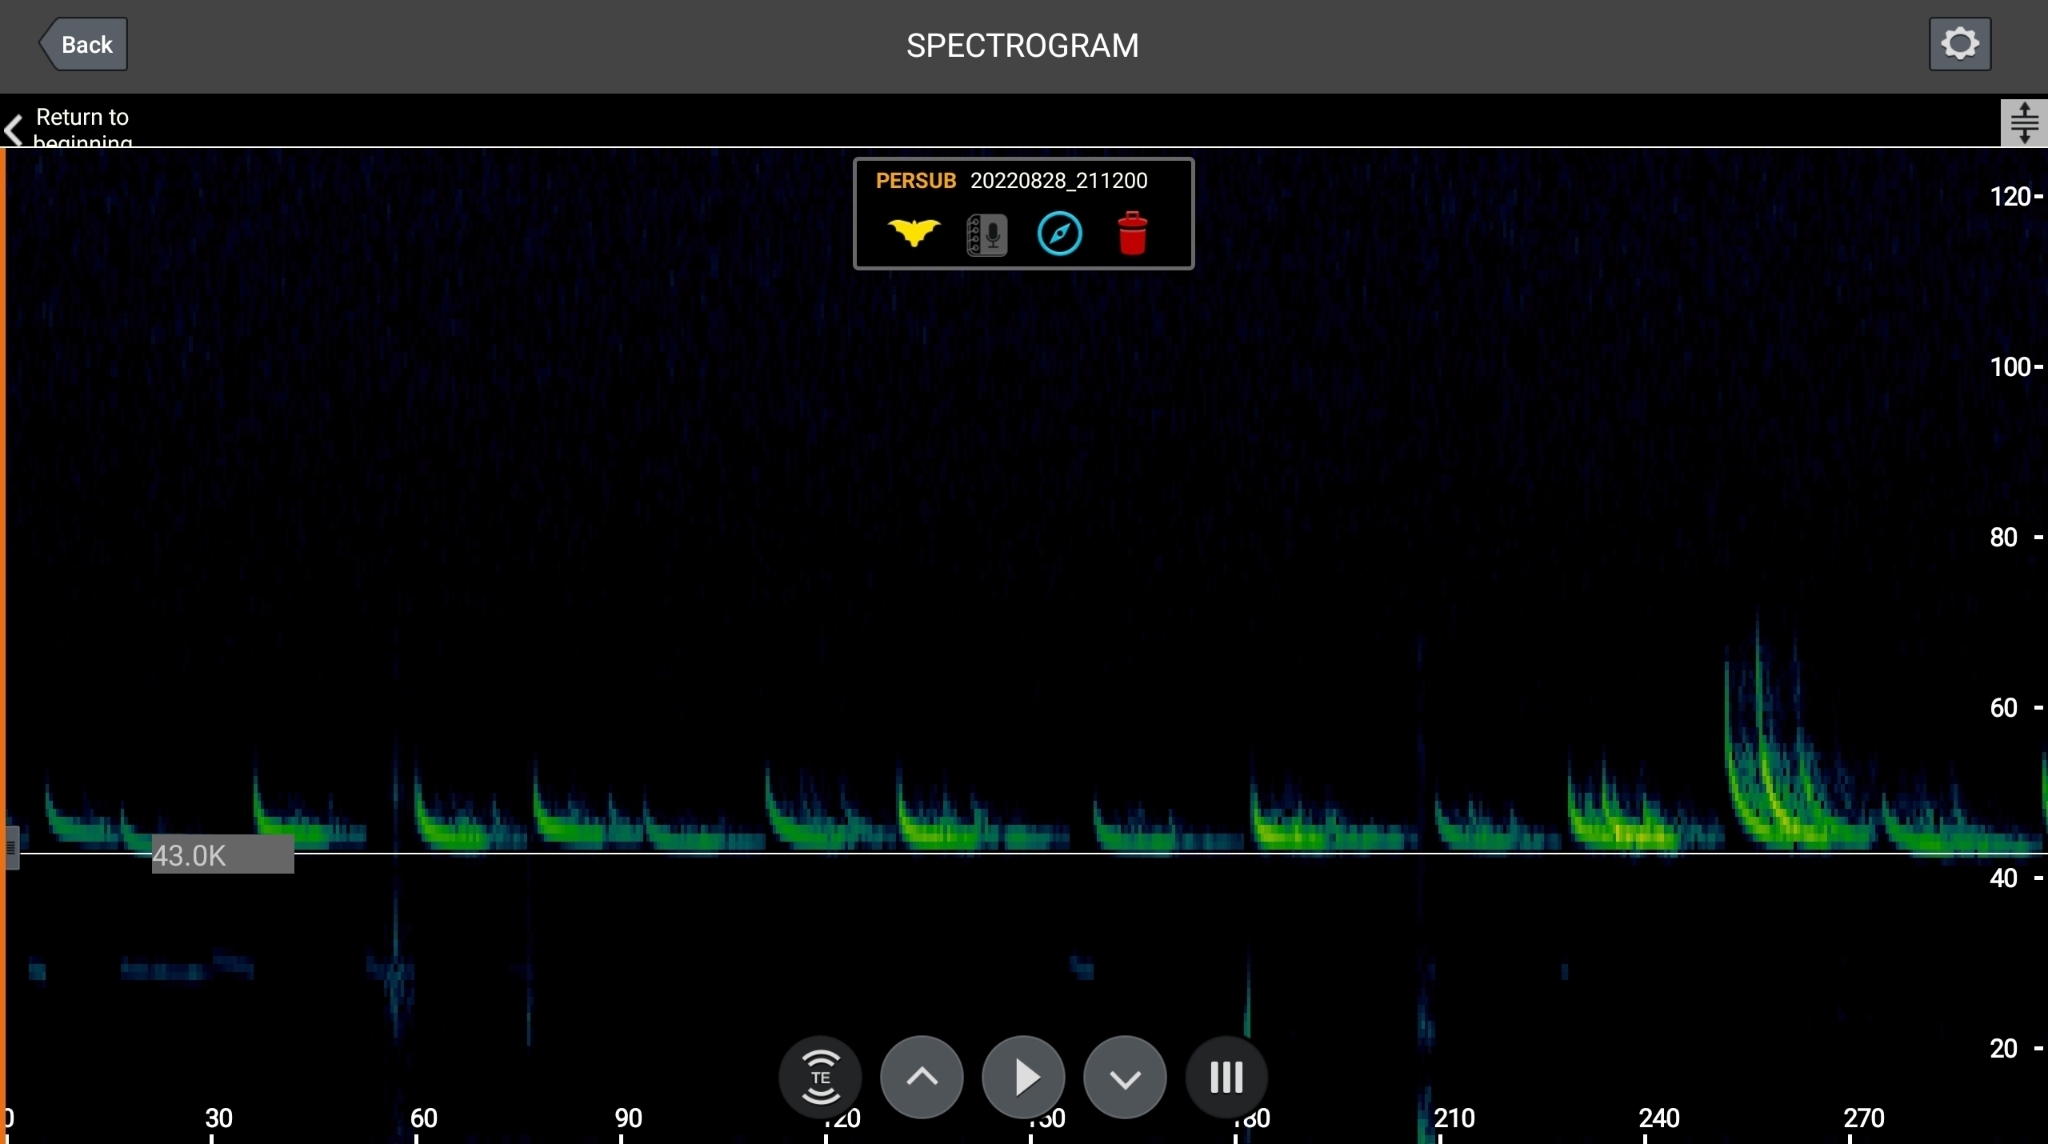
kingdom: Animalia
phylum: Chordata
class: Mammalia
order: Chiroptera
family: Vespertilionidae
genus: Perimyotis
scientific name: Perimyotis subflavus
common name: Eastern pipistrelle
